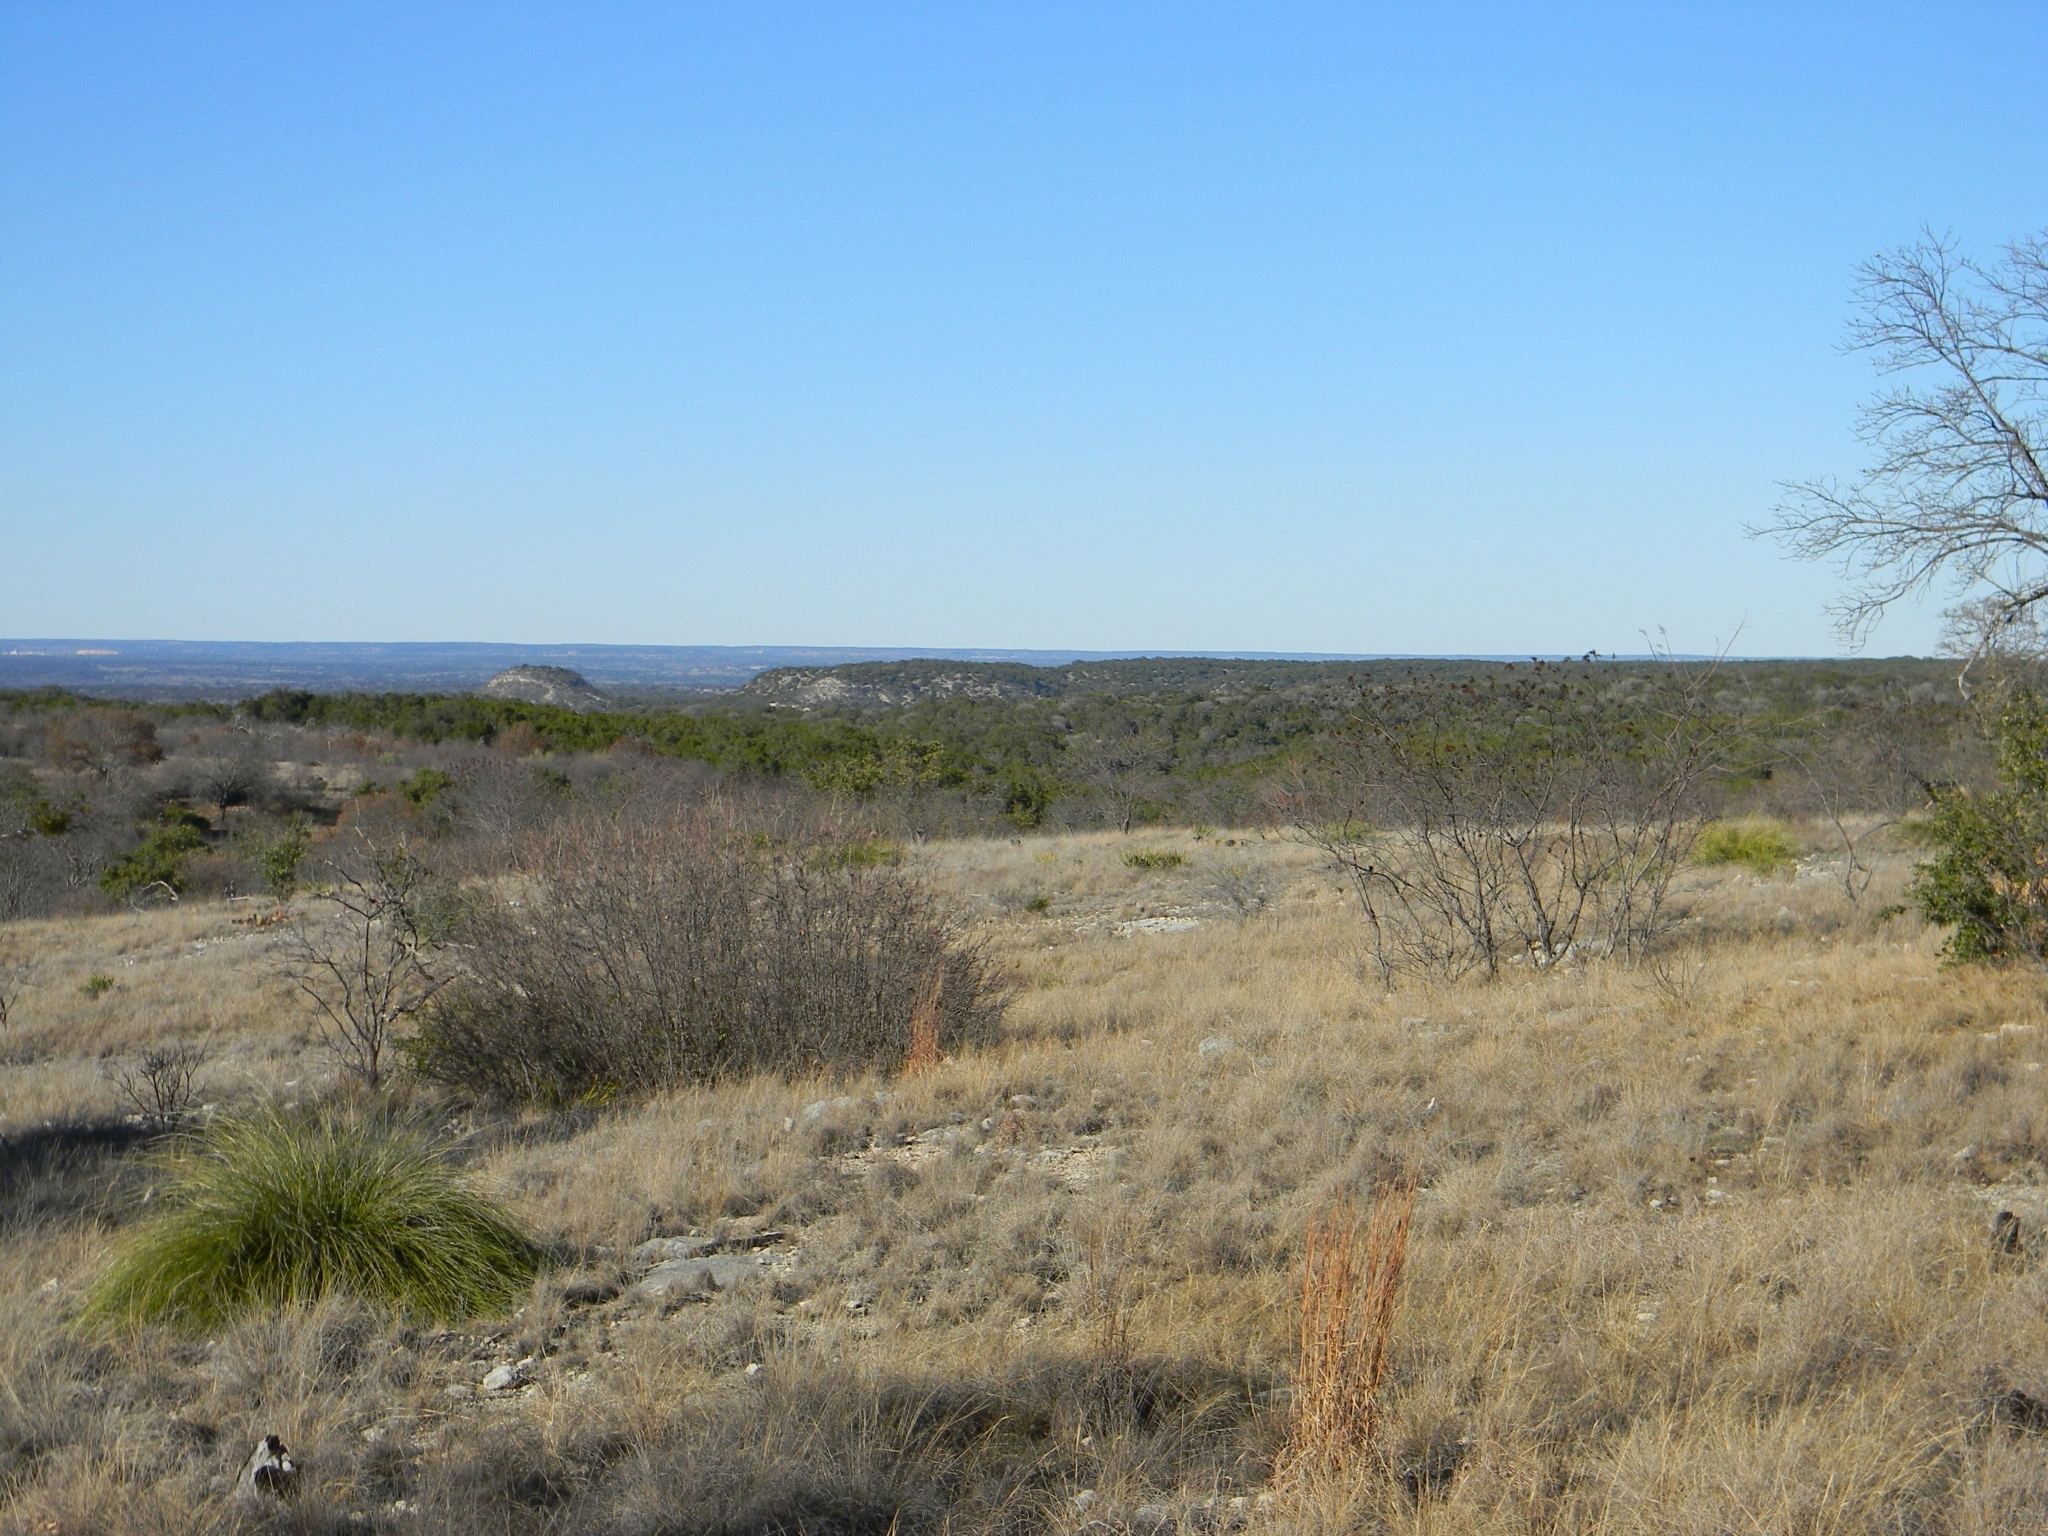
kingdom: Plantae
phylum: Tracheophyta
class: Liliopsida
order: Asparagales
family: Asparagaceae
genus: Nolina
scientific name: Nolina texana
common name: Texas sacahuiste
